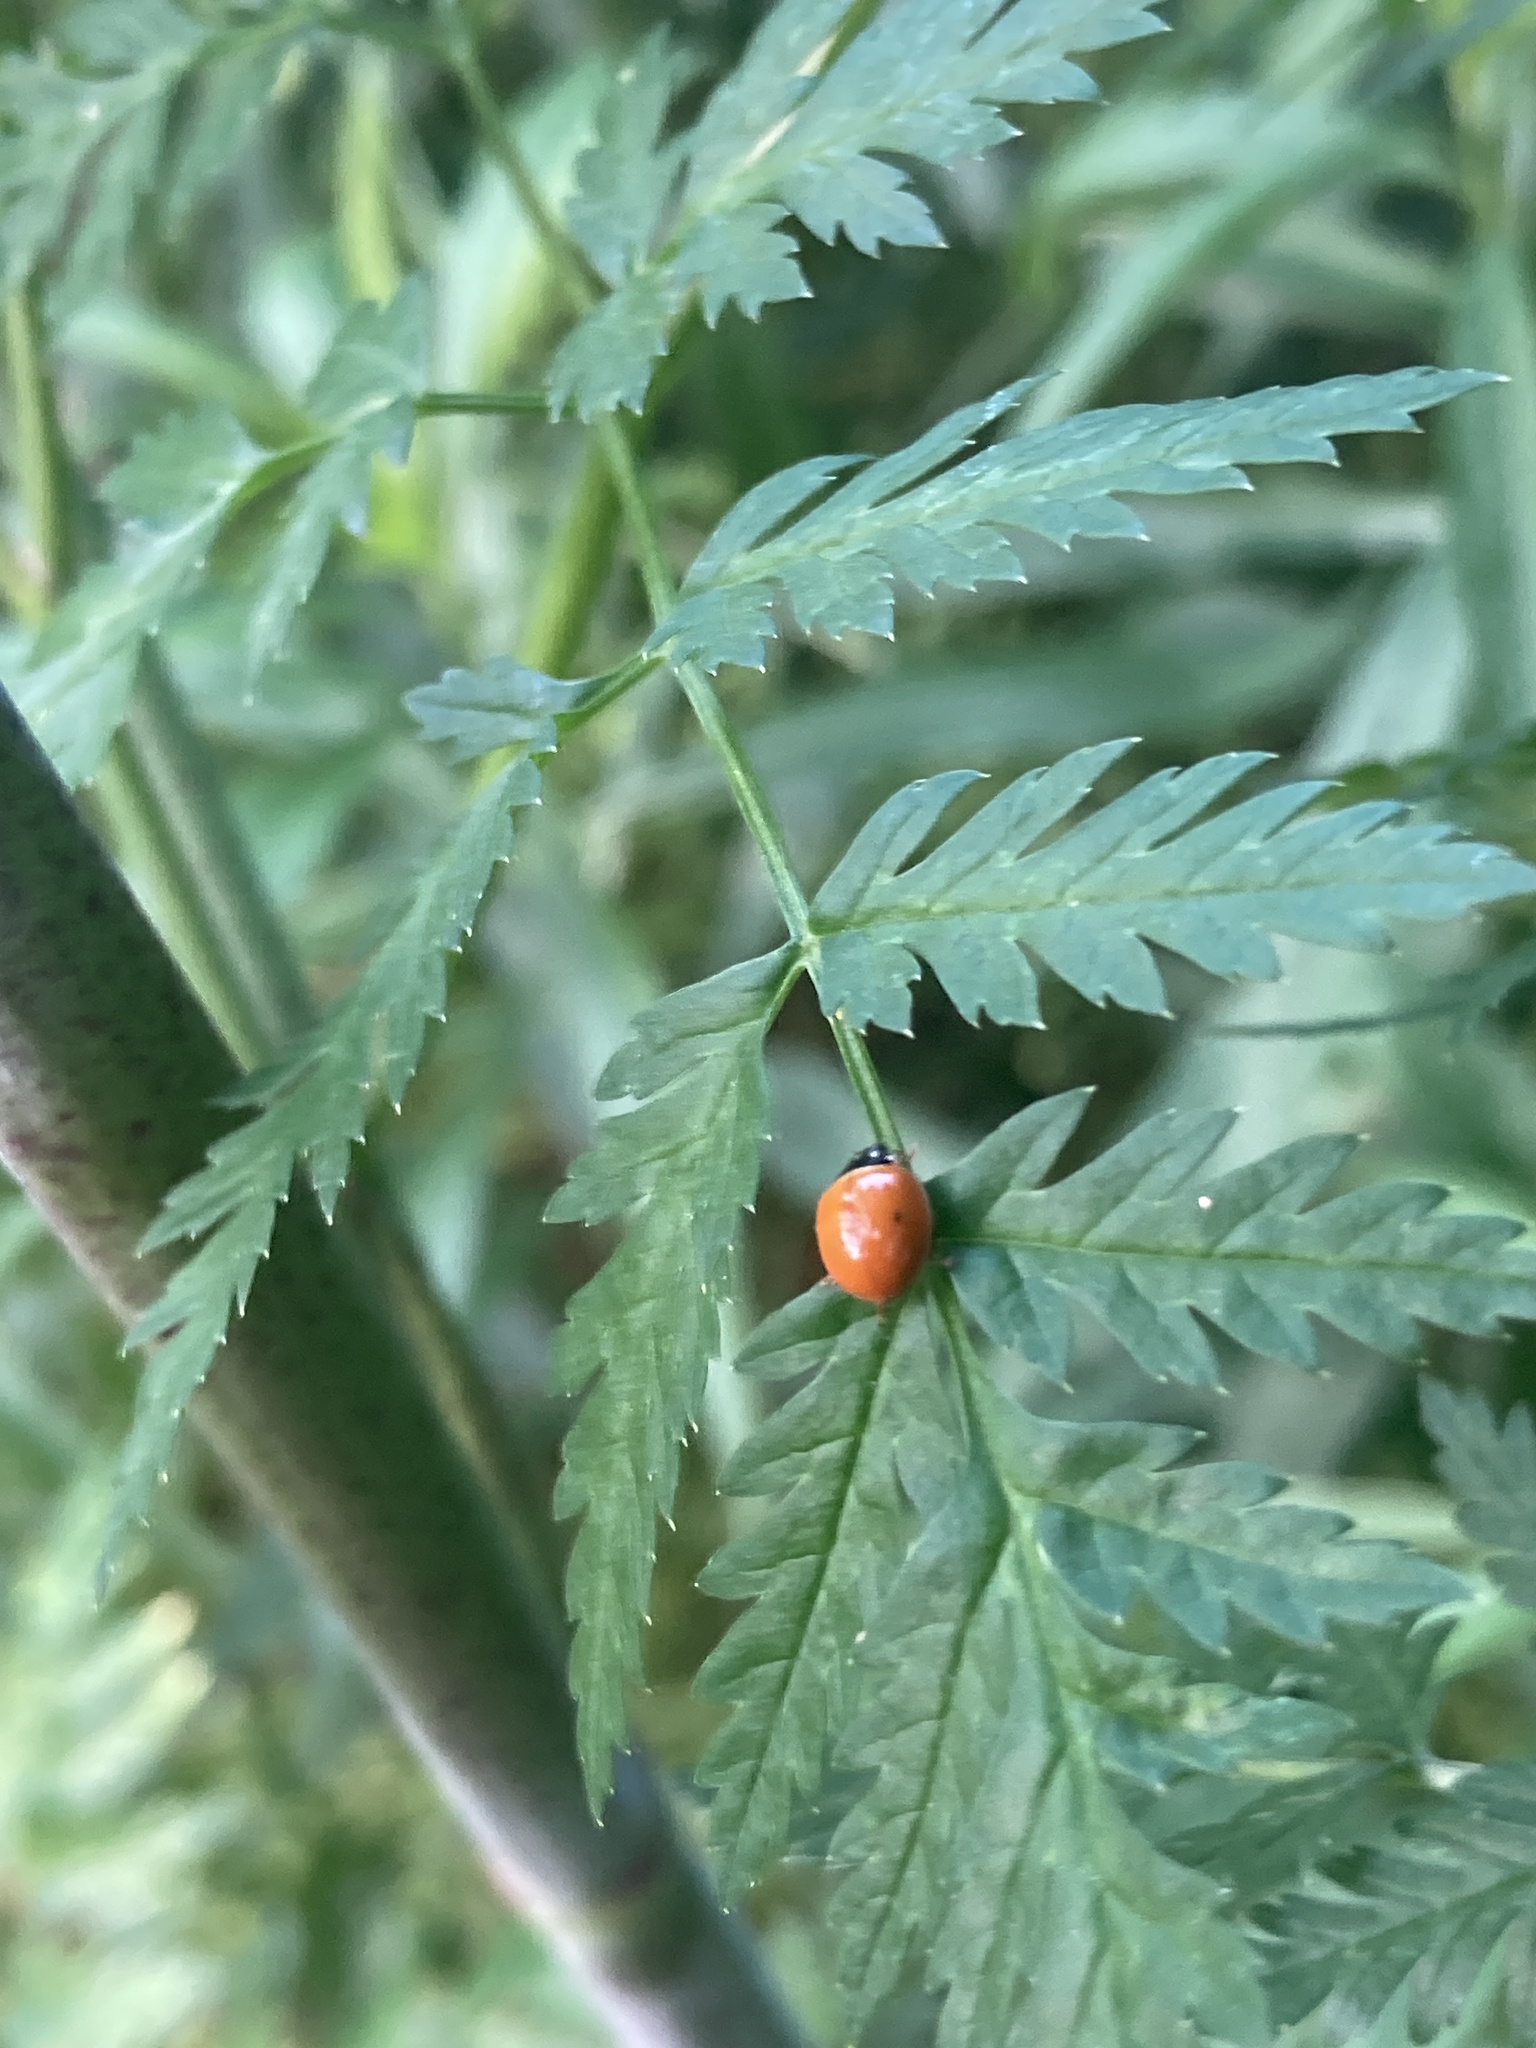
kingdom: Animalia
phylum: Arthropoda
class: Insecta
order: Coleoptera
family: Coccinellidae
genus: Cycloneda
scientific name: Cycloneda munda
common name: Polished lady beetle
